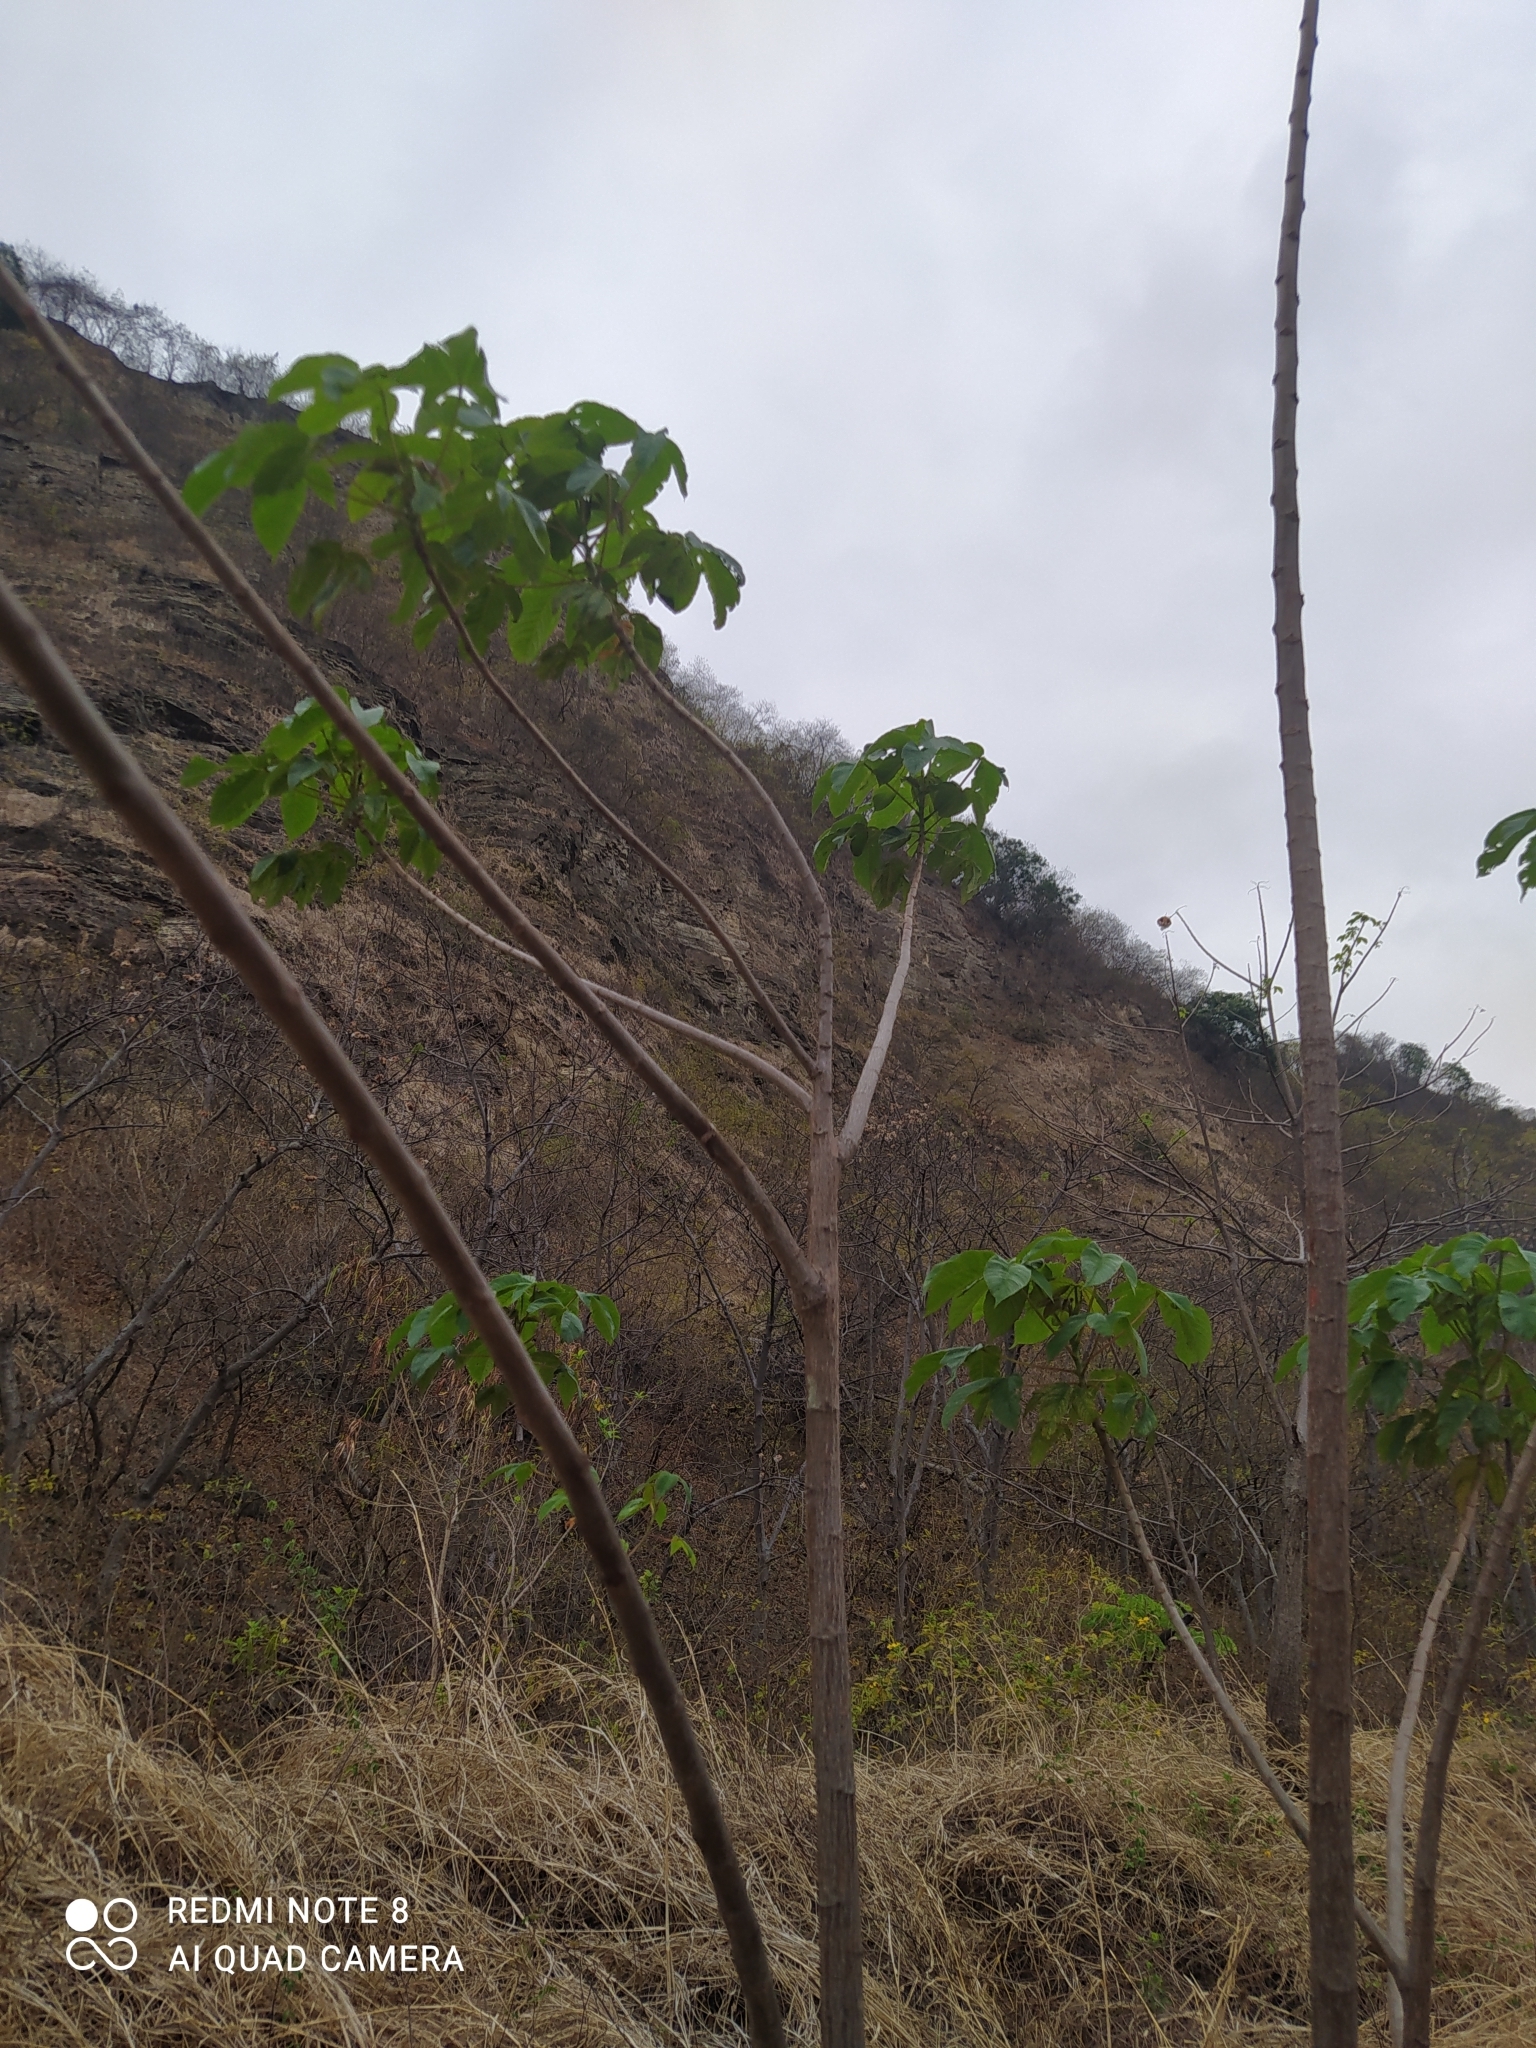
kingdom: Plantae
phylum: Tracheophyta
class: Magnoliopsida
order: Malvales
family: Cochlospermaceae
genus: Cochlospermum
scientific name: Cochlospermum vitifolium
